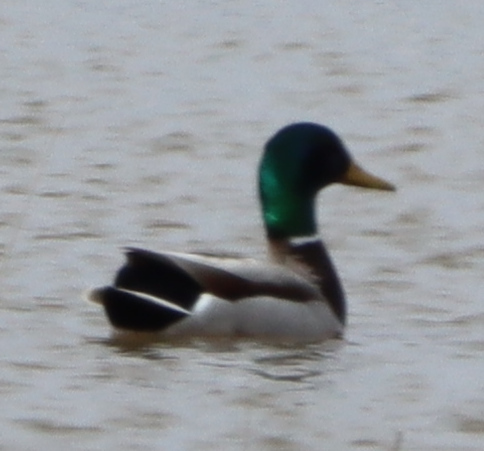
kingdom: Animalia
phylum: Chordata
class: Aves
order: Anseriformes
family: Anatidae
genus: Anas
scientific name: Anas platyrhynchos
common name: Mallard
